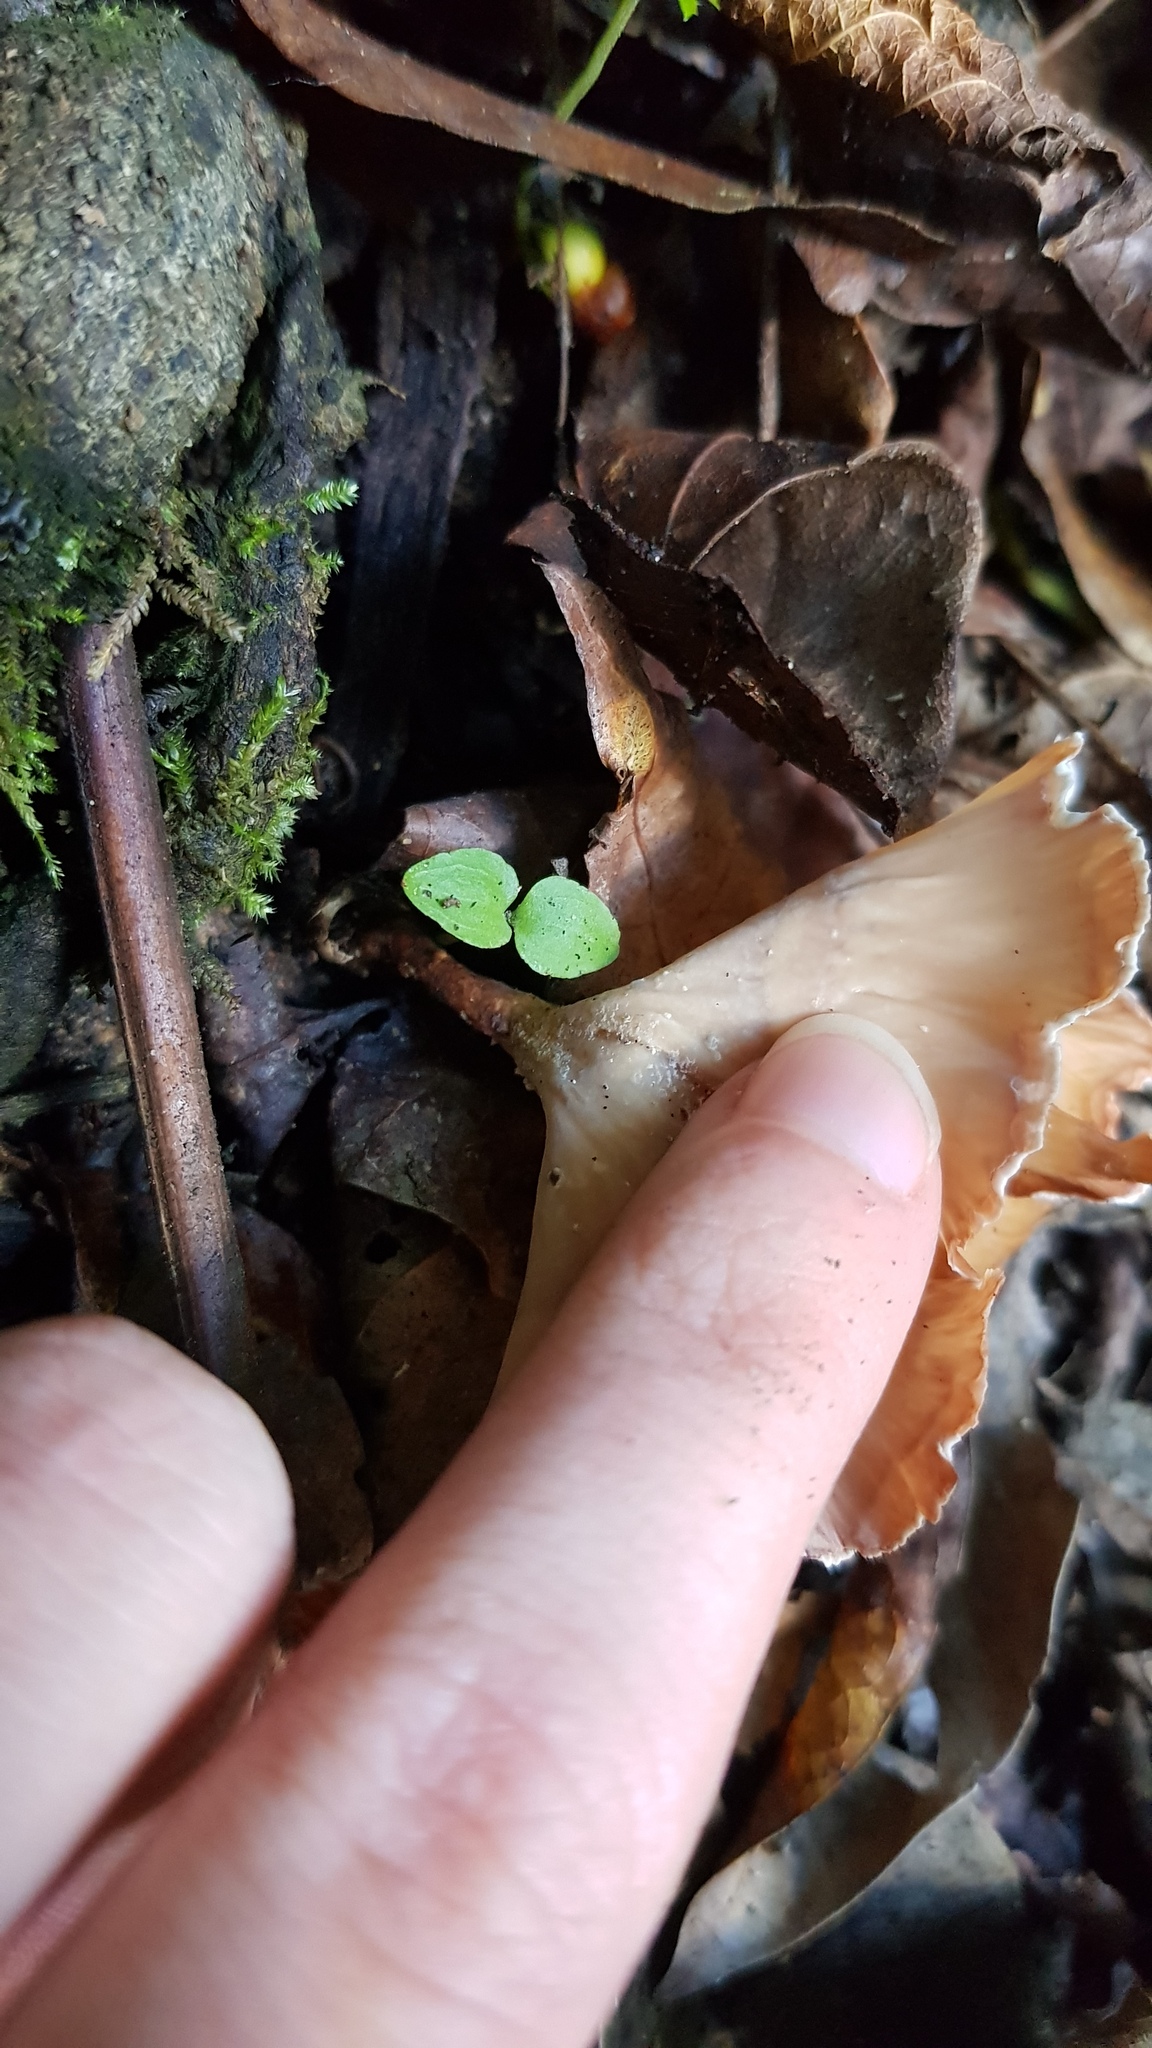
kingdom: Fungi
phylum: Basidiomycota
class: Agaricomycetes
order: Polyporales
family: Podoscyphaceae
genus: Podoscypha
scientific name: Podoscypha petalodes
